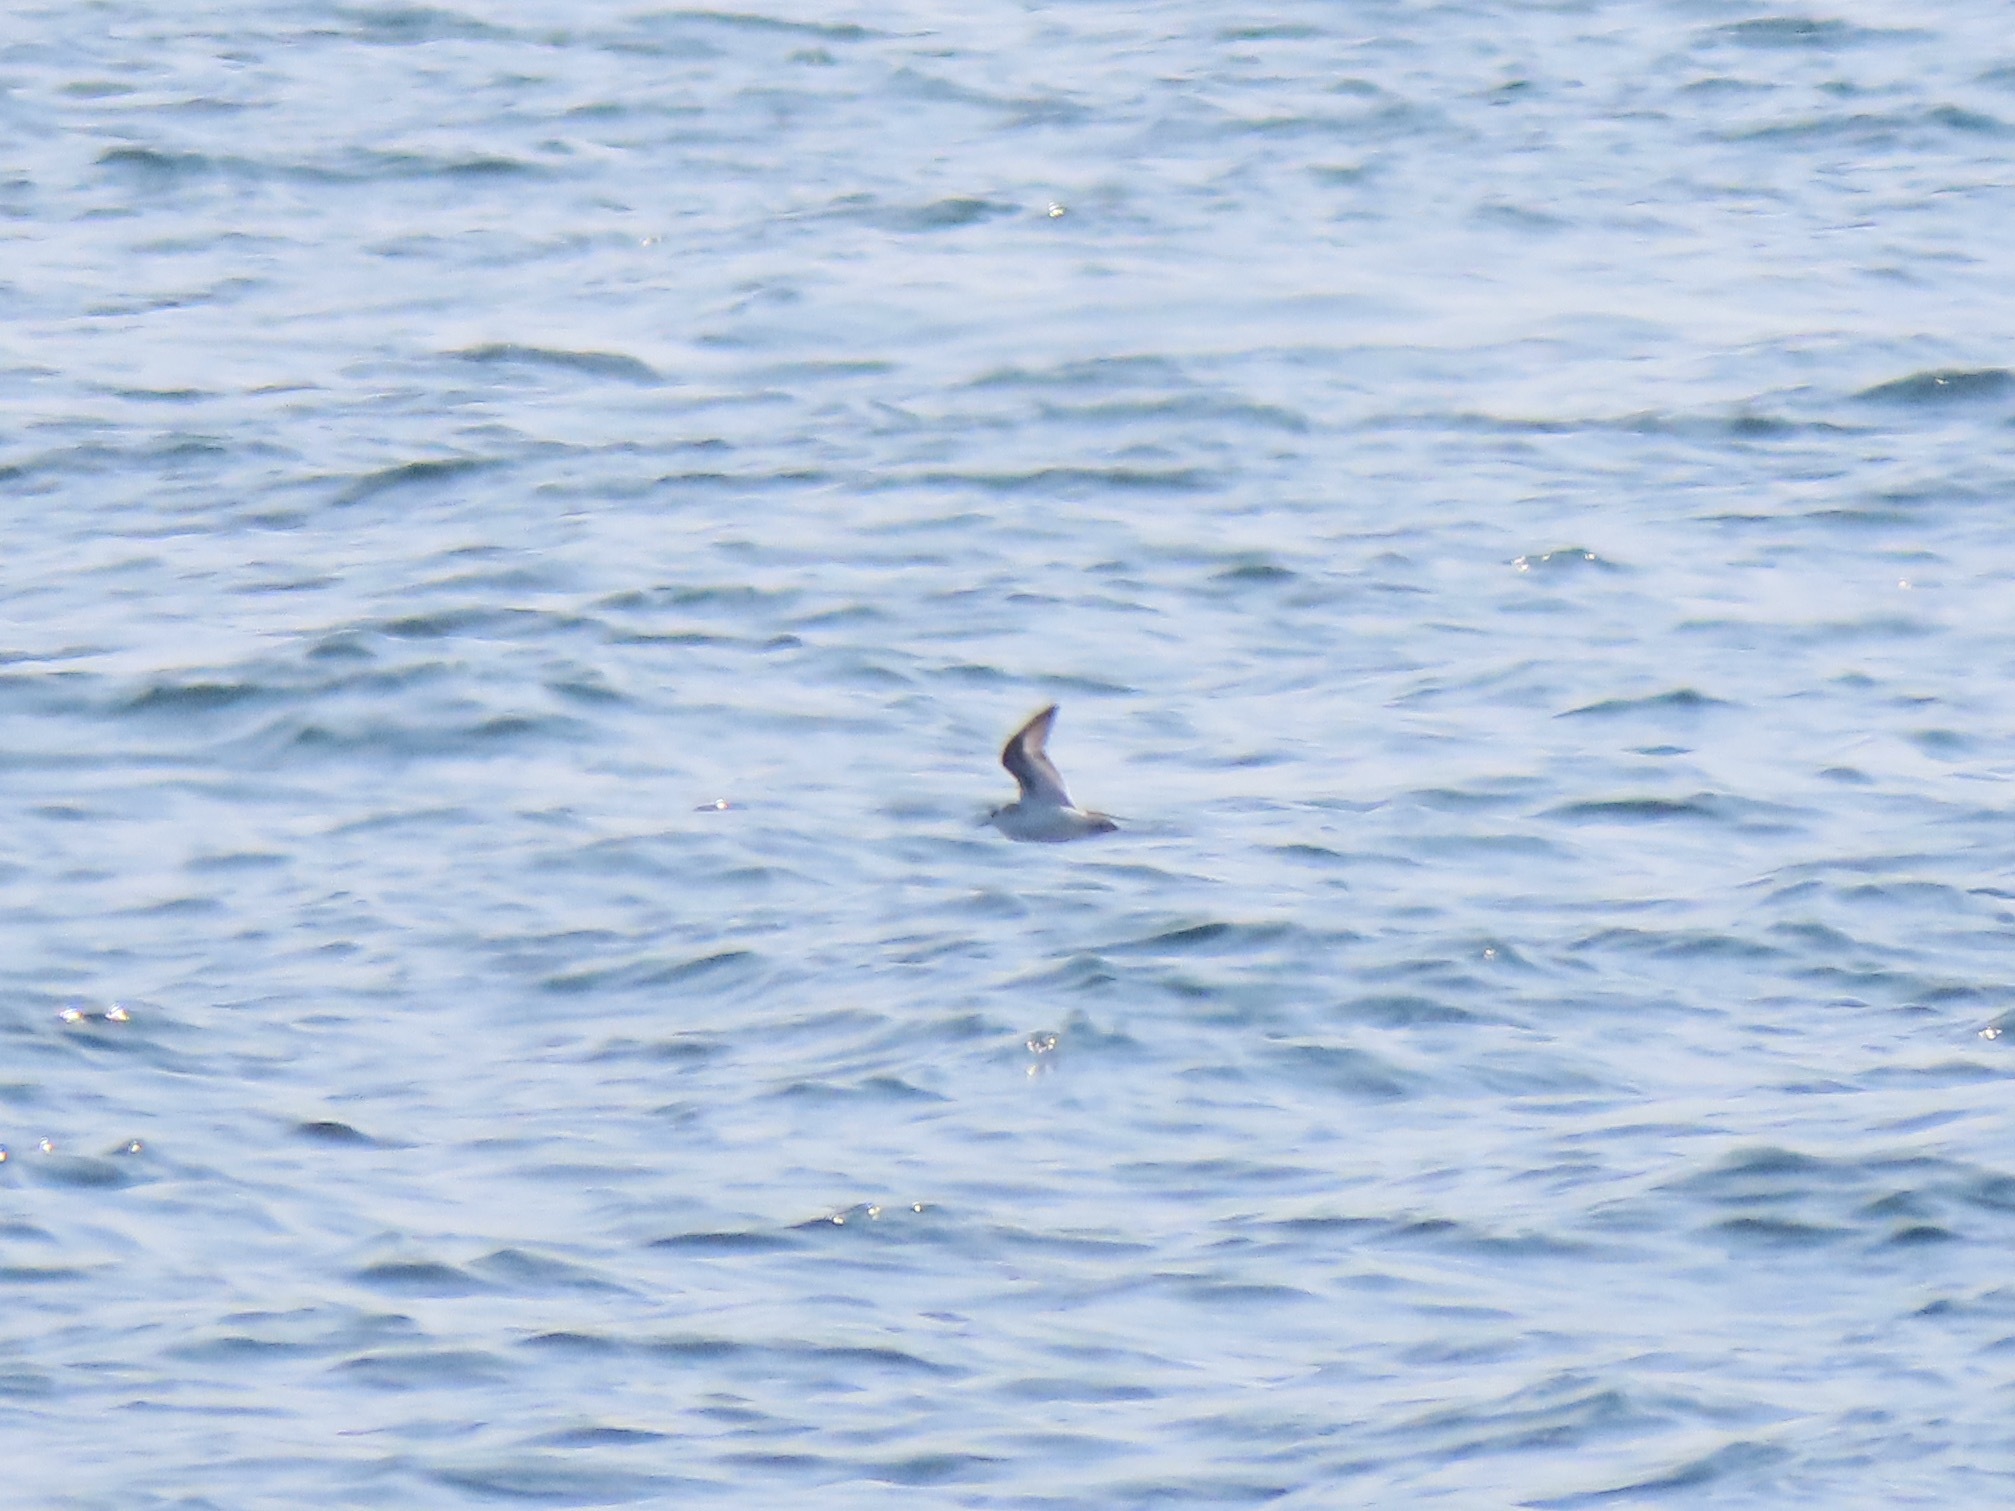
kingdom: Animalia
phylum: Chordata
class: Aves
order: Charadriiformes
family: Scolopacidae
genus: Phalaropus
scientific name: Phalaropus lobatus
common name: Red-necked phalarope
